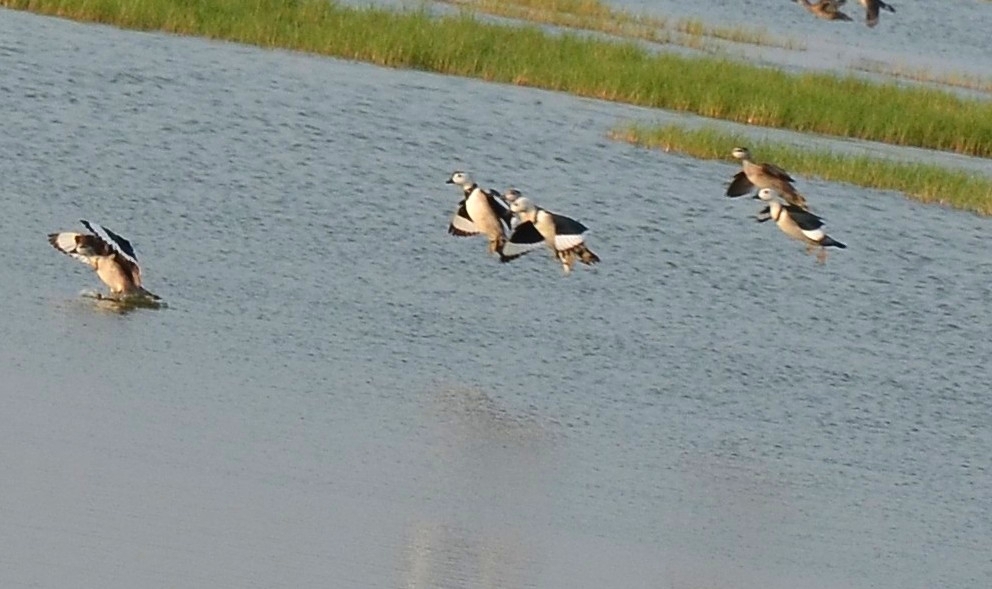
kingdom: Animalia
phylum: Chordata
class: Aves
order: Anseriformes
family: Anatidae
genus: Nettapus
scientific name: Nettapus coromandelianus
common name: Cotton pygmy-goose
